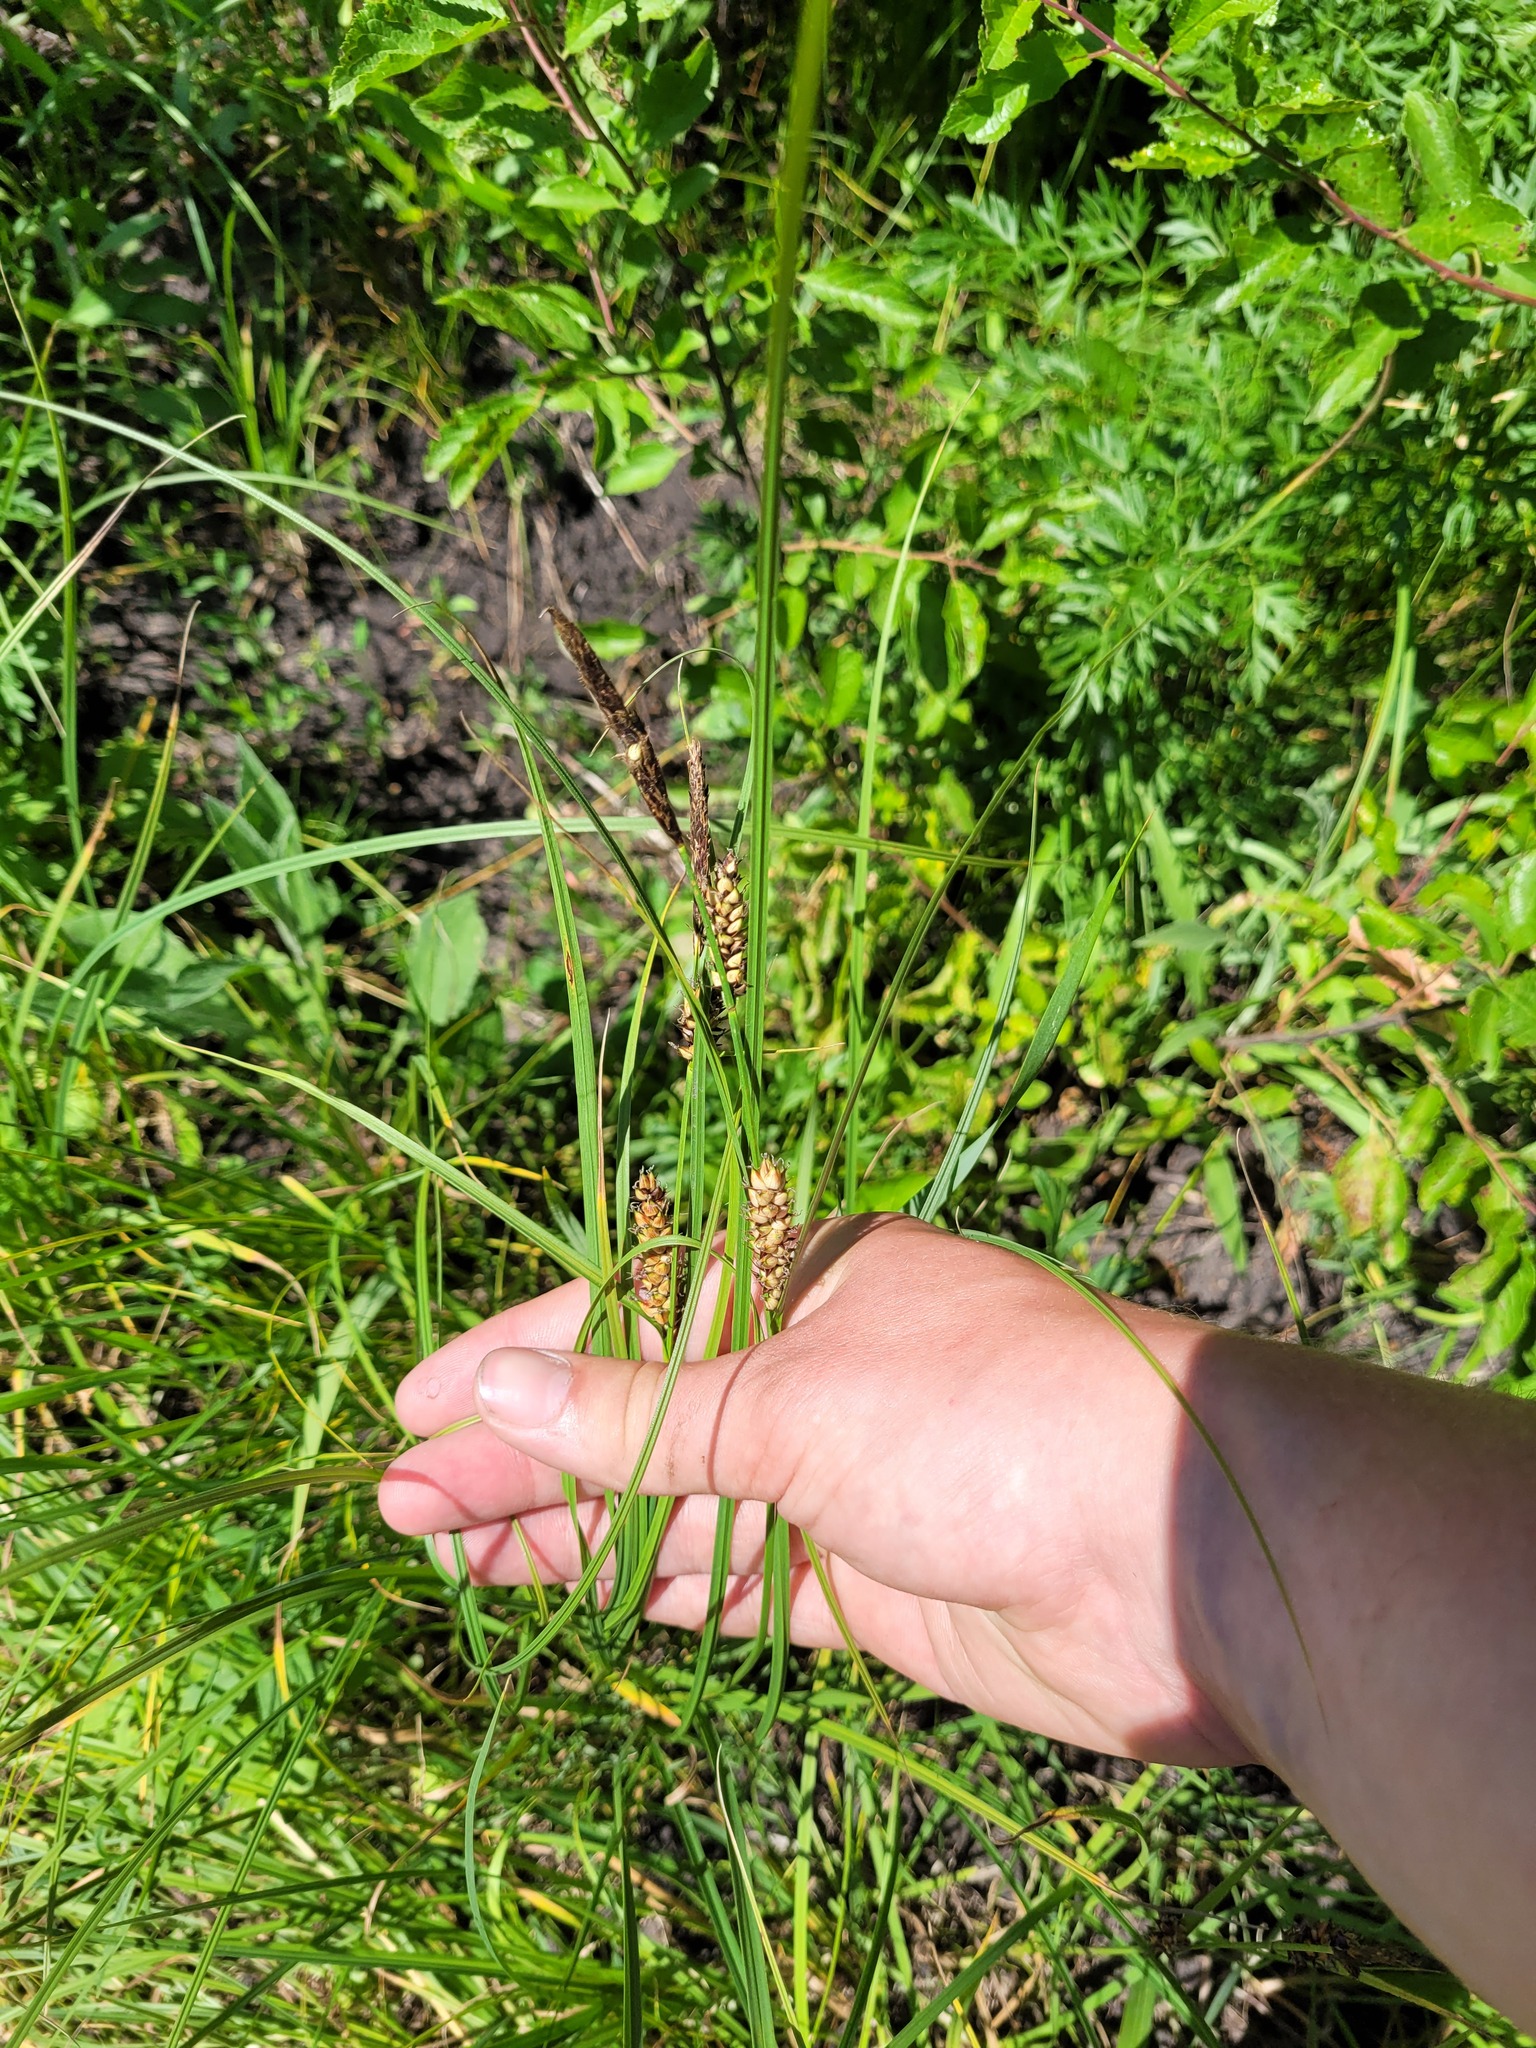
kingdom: Plantae
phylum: Tracheophyta
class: Liliopsida
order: Poales
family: Cyperaceae
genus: Carex
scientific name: Carex melanostachya
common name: Black-spiked sedge
